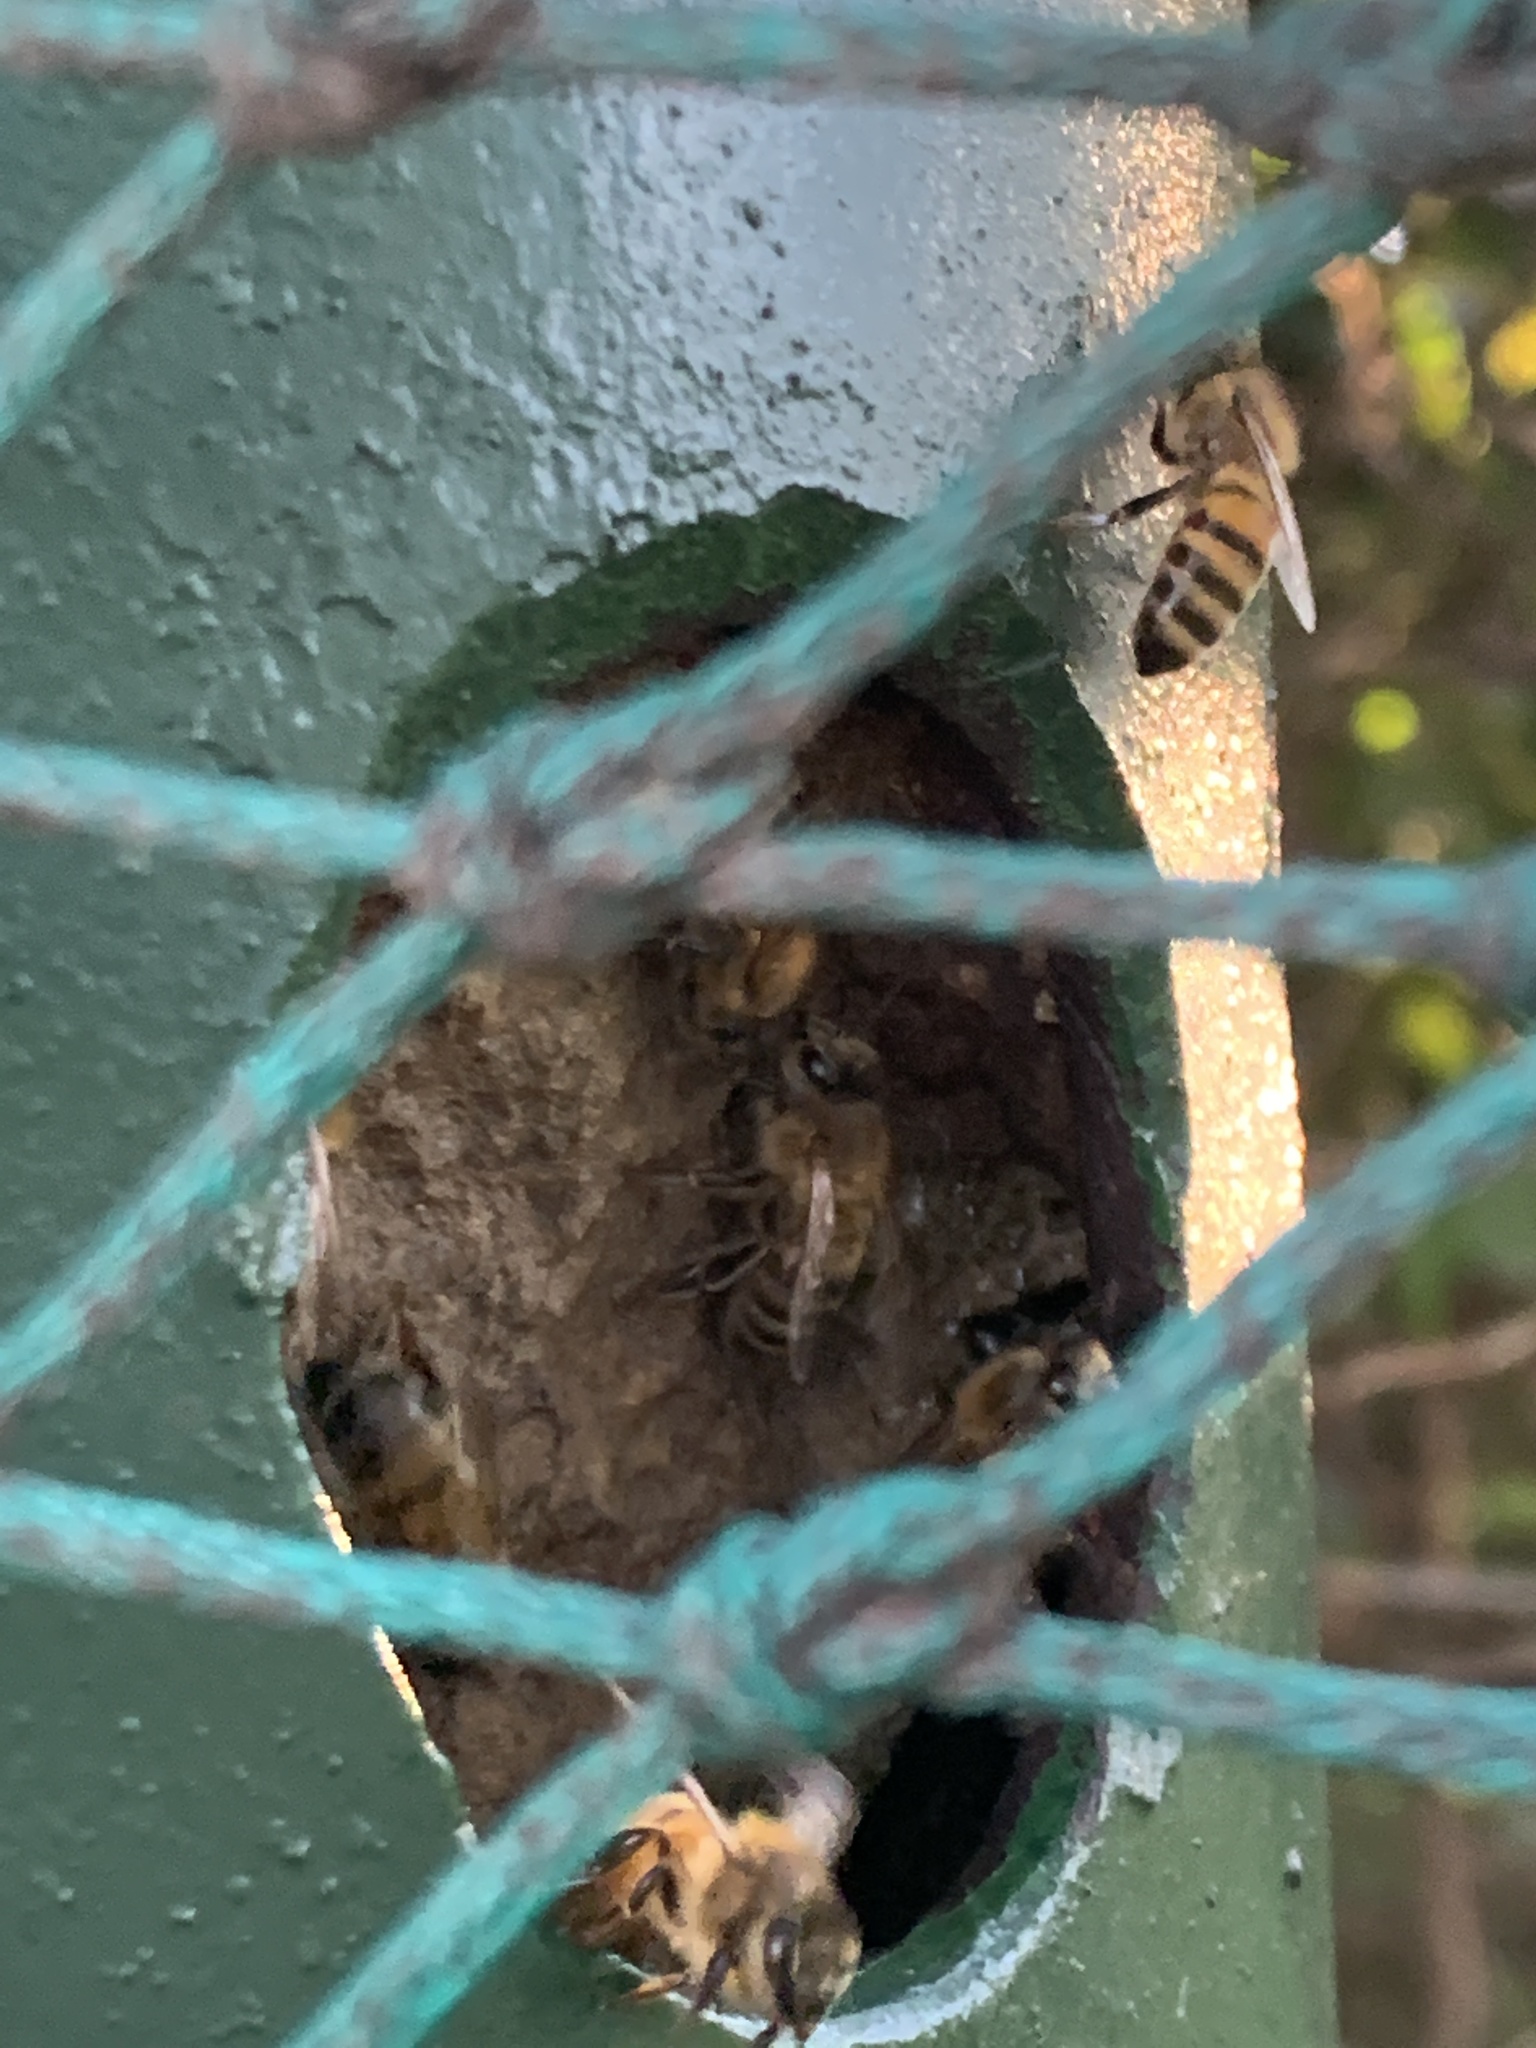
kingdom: Animalia
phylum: Arthropoda
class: Insecta
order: Hymenoptera
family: Apidae
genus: Apis
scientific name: Apis mellifera
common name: Honey bee
